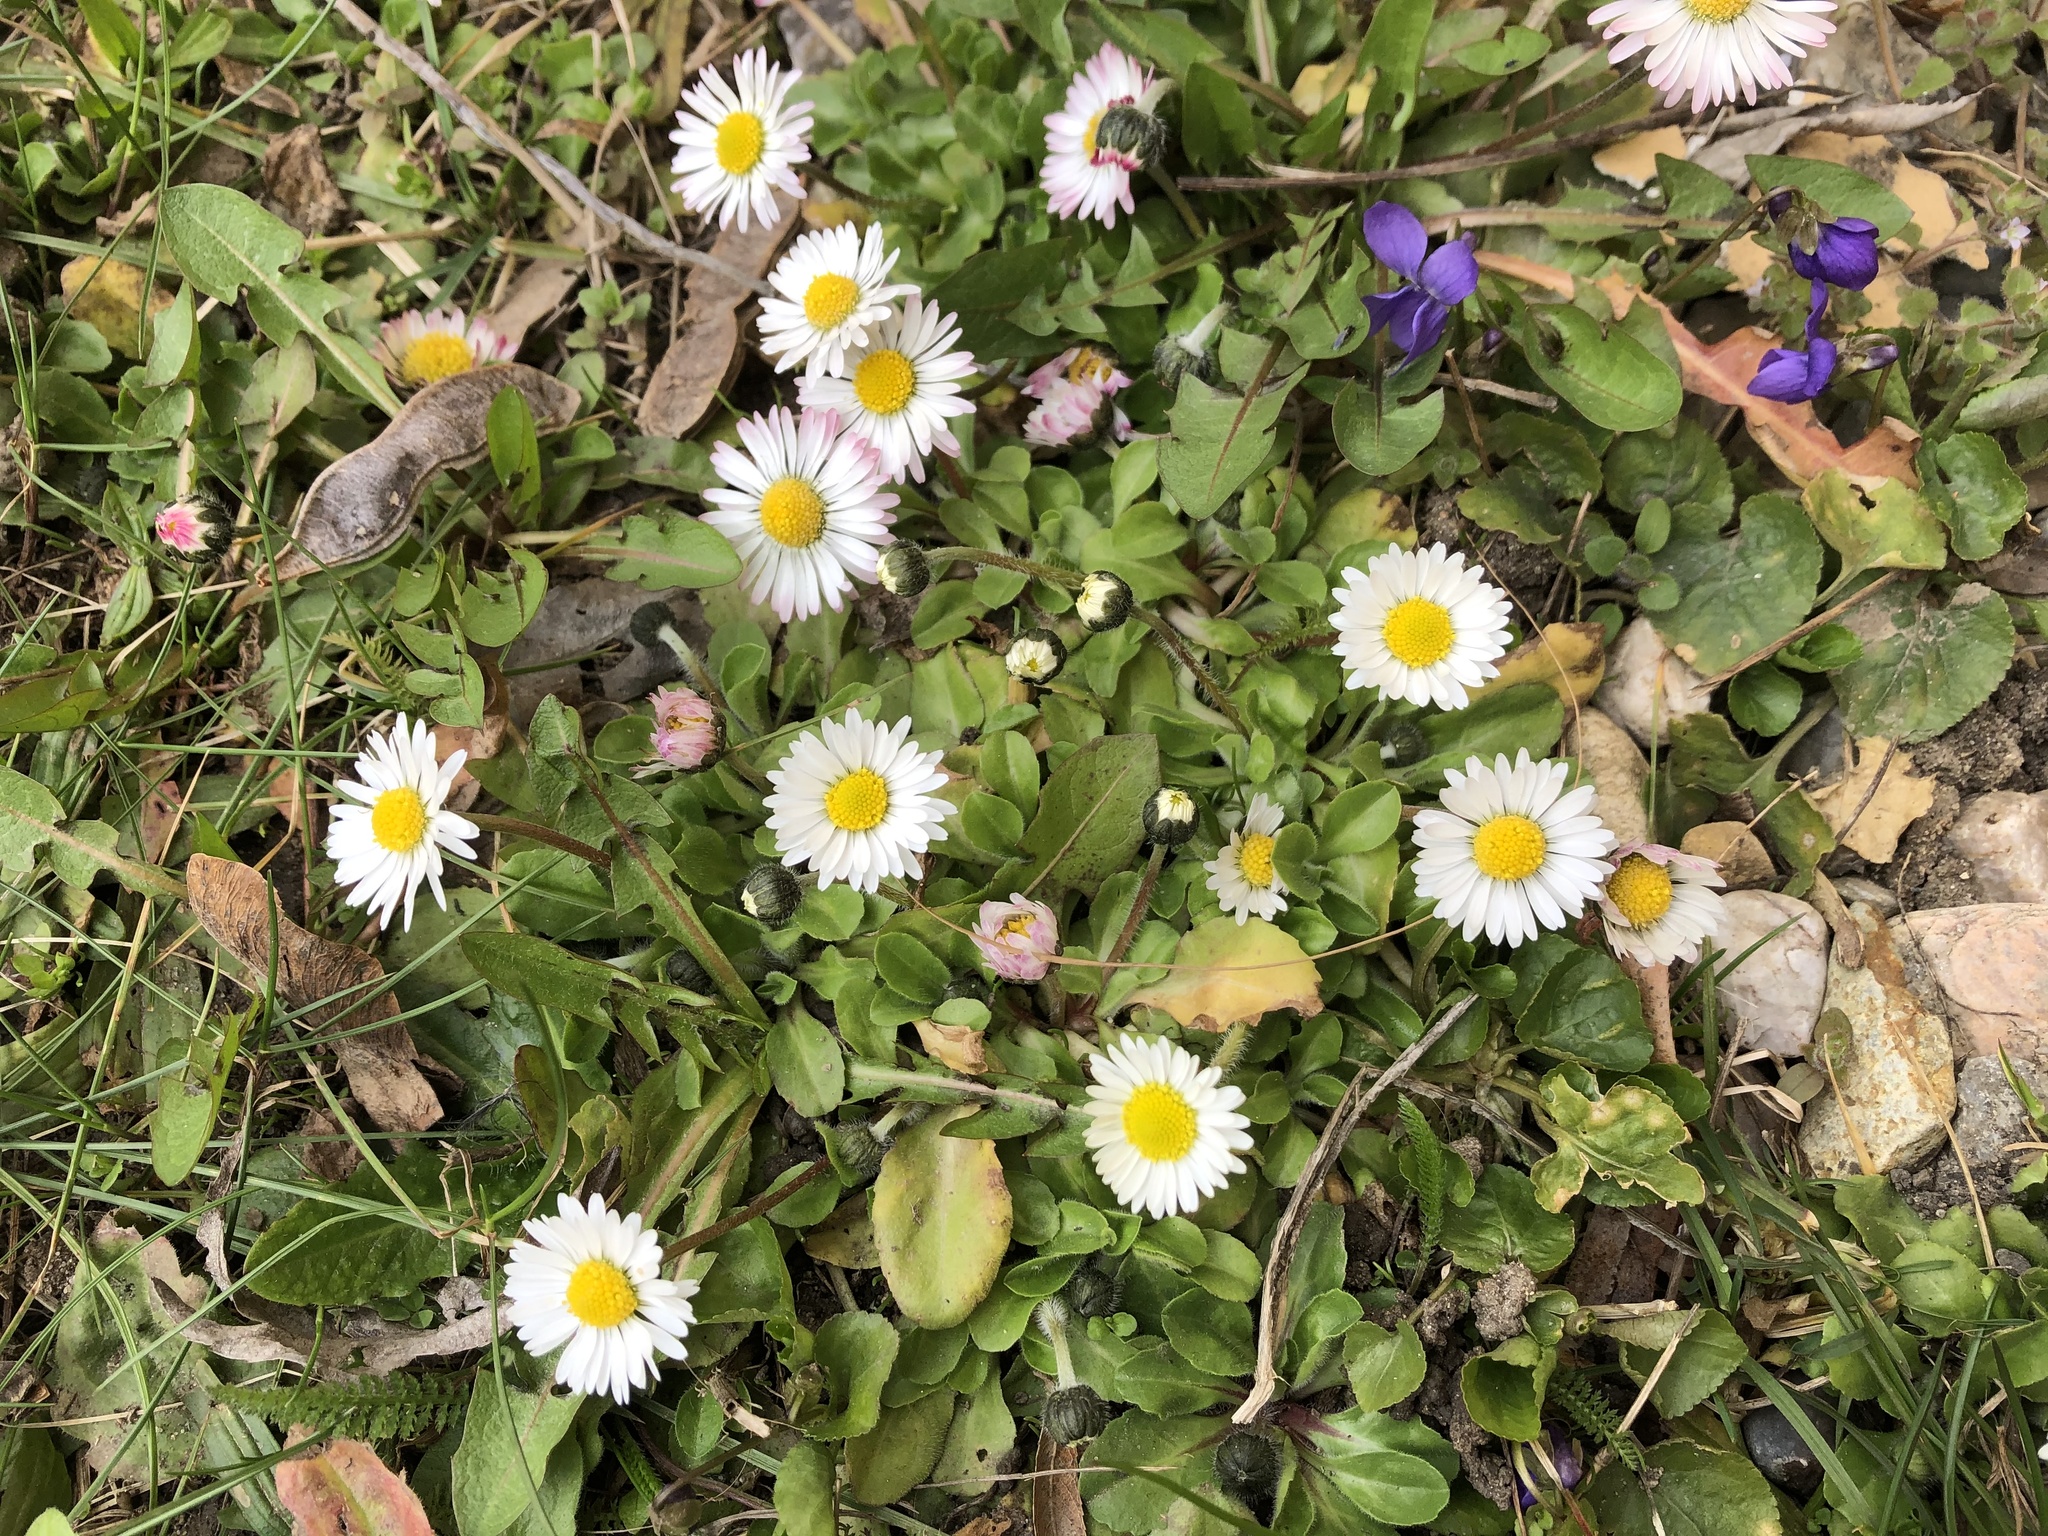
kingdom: Plantae
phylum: Tracheophyta
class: Magnoliopsida
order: Asterales
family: Asteraceae
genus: Bellis
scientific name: Bellis perennis
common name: Lawndaisy
